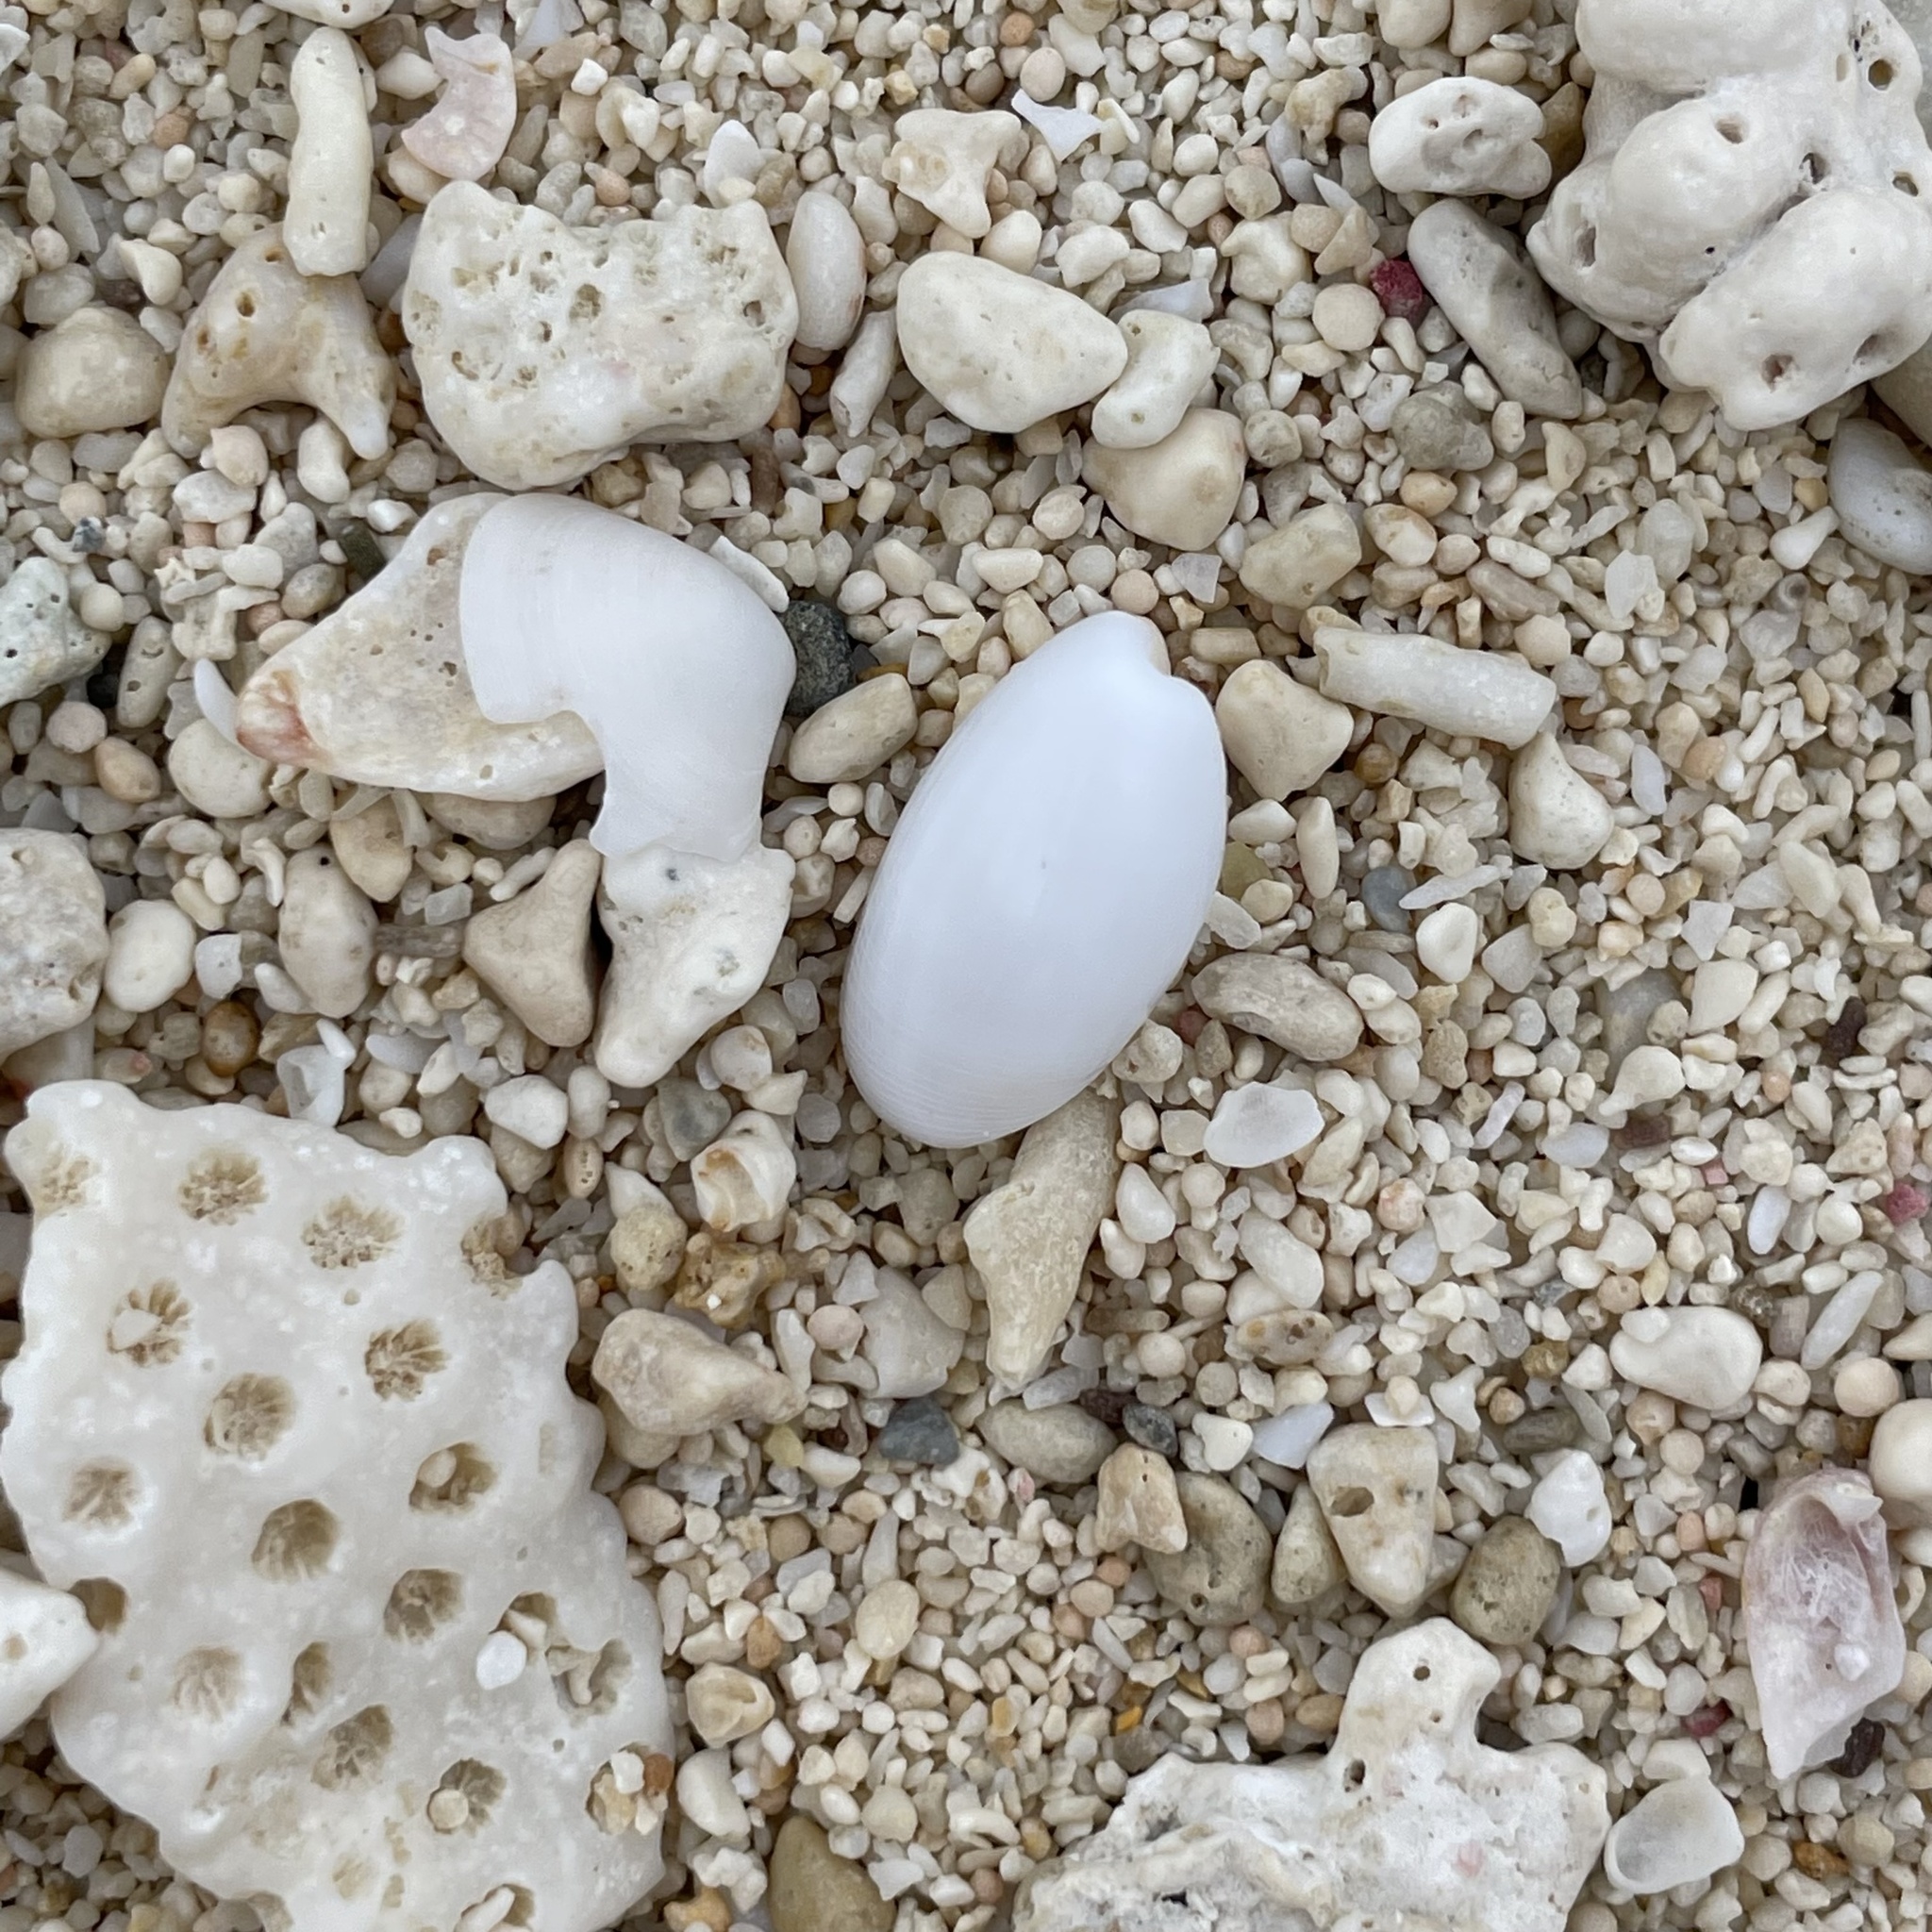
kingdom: Animalia
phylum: Mollusca
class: Gastropoda
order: Cephalaspidea
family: Haminoeidae
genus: Aliculastrum
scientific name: Aliculastrum cylindricum
